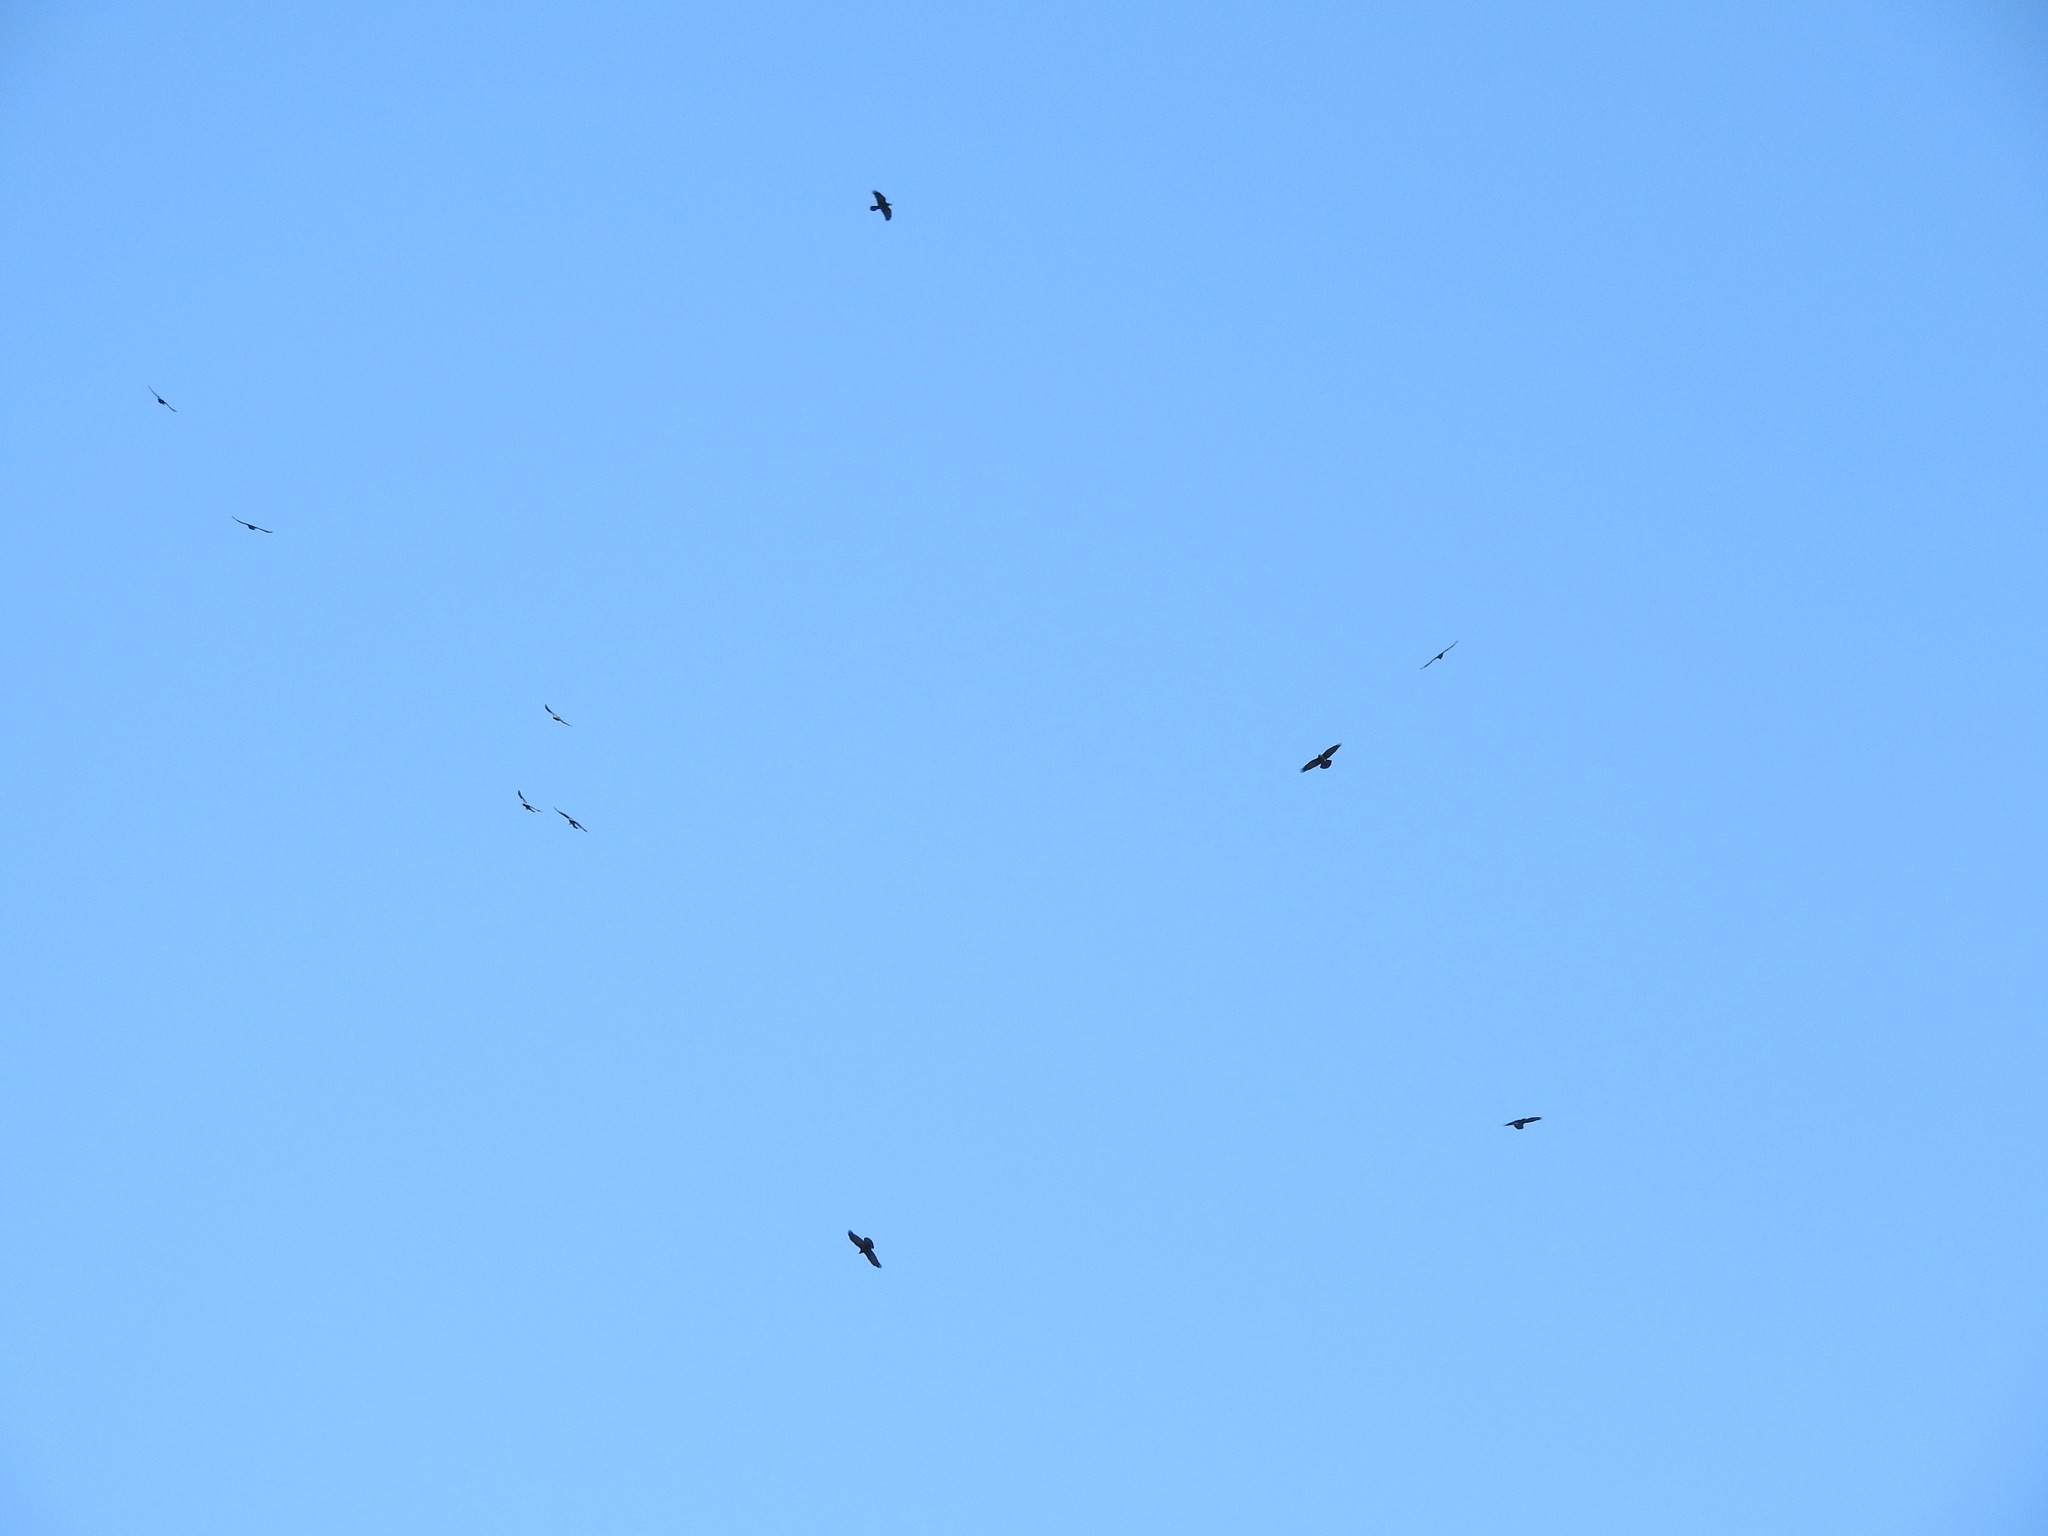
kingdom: Animalia
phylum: Chordata
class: Aves
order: Passeriformes
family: Corvidae
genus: Corvus
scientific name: Corvus corax
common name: Common raven
